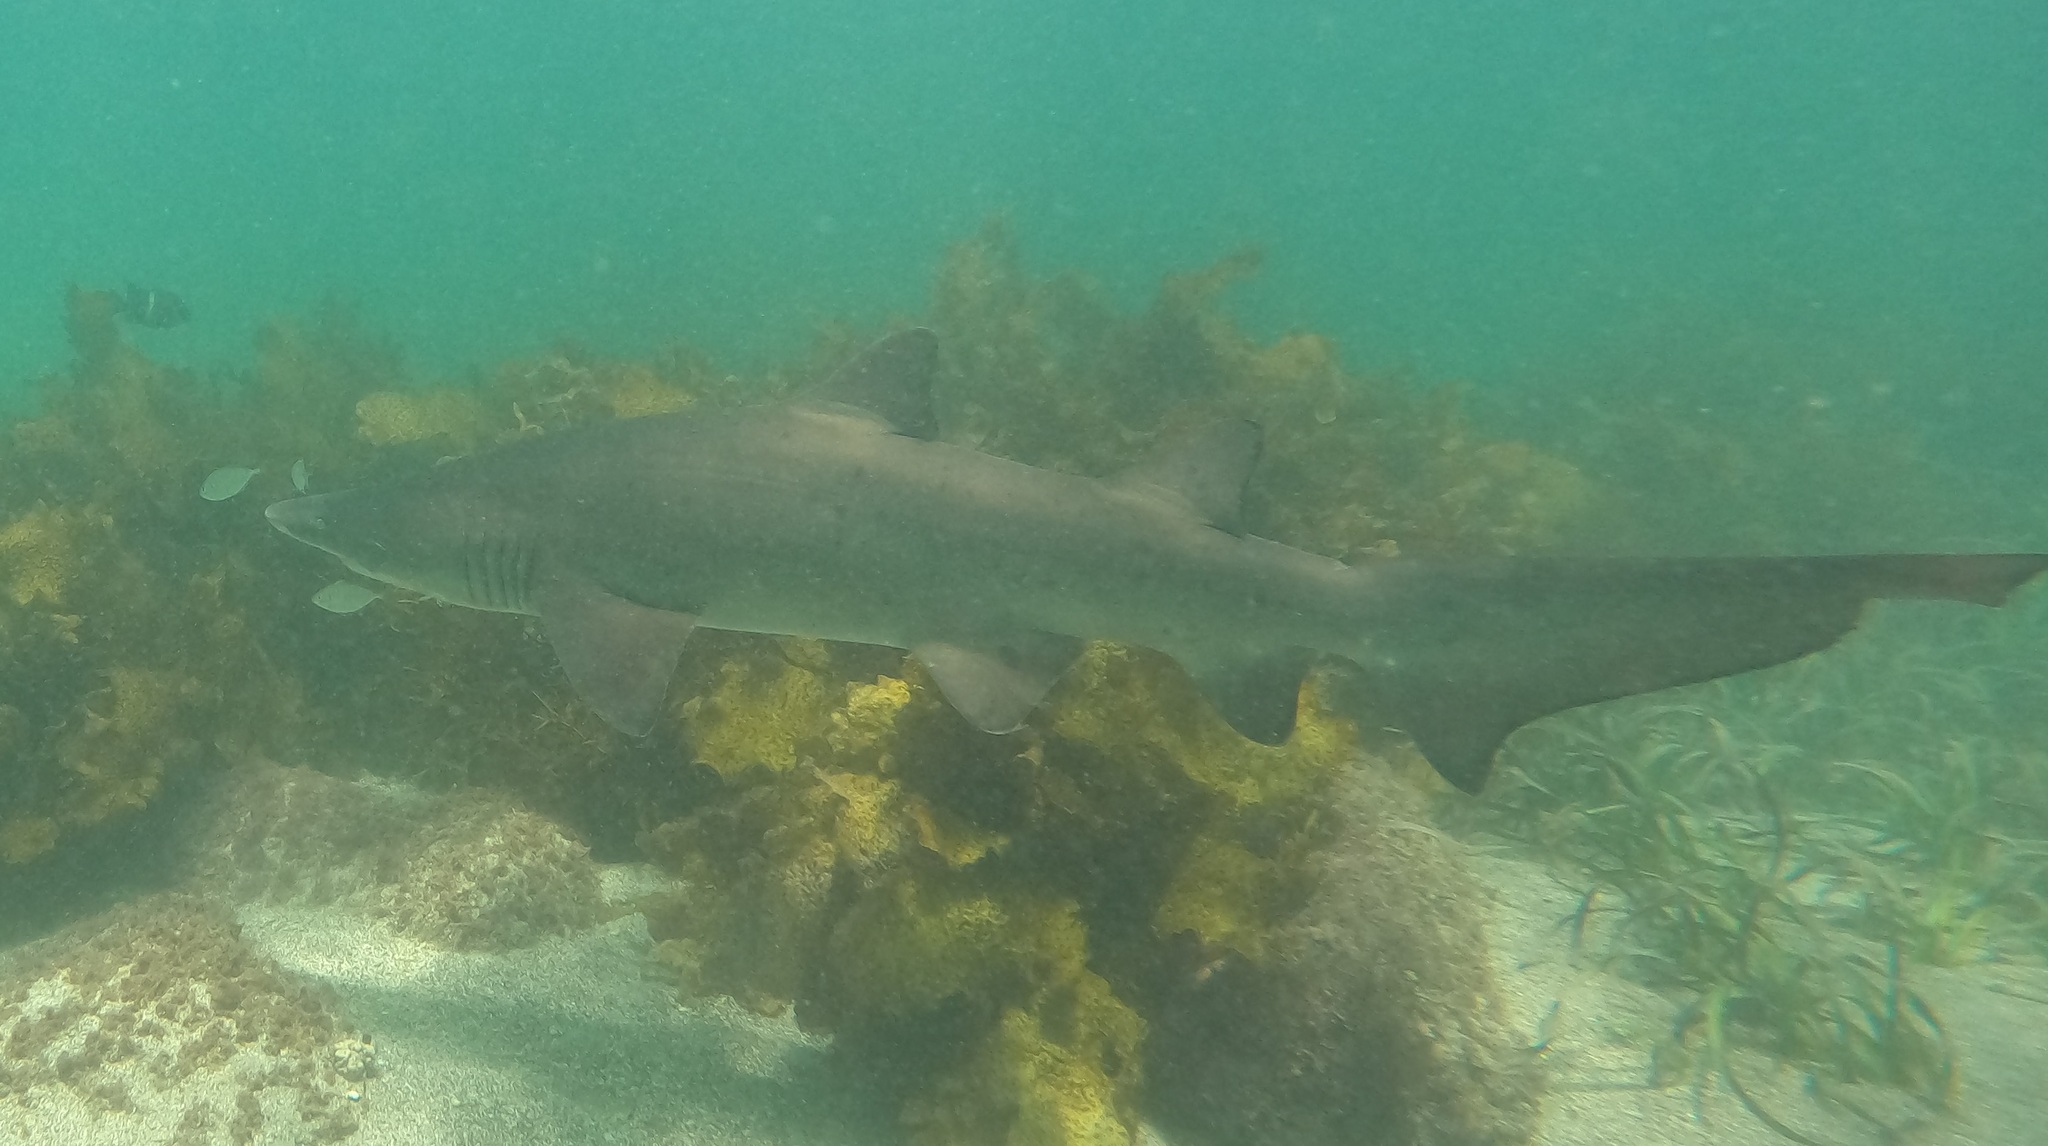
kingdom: Animalia
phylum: Chordata
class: Elasmobranchii
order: Lamniformes
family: Odontaspididae
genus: Carcharias
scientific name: Carcharias taurus
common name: Sand shark
